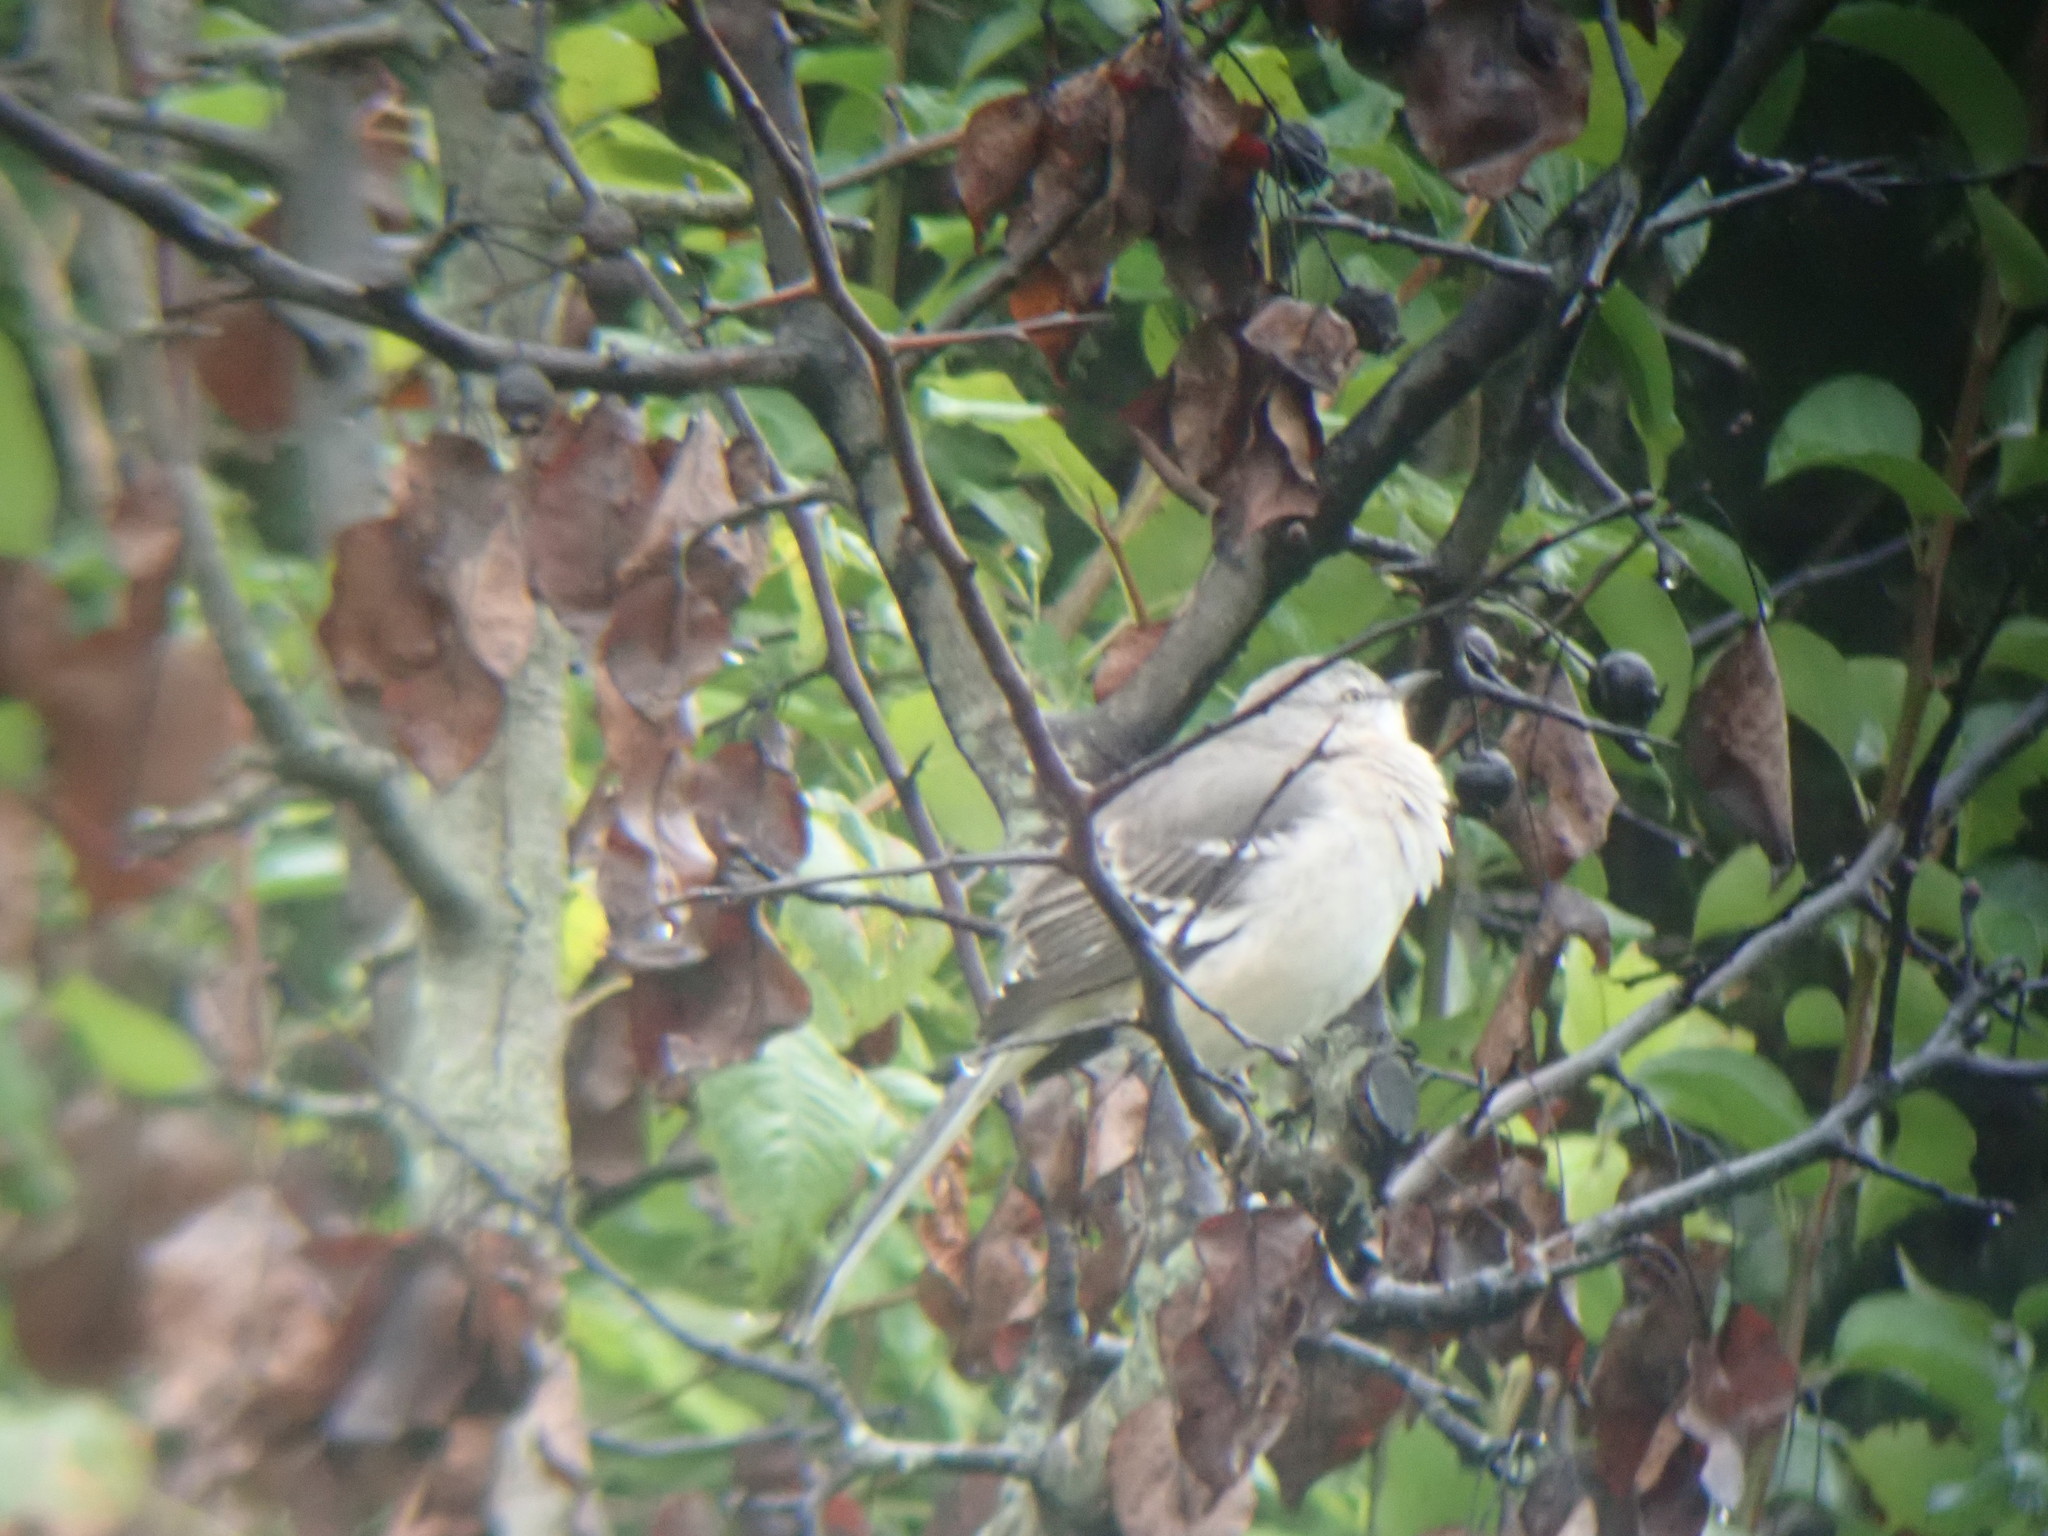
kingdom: Animalia
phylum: Chordata
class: Aves
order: Passeriformes
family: Mimidae
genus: Mimus
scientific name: Mimus polyglottos
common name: Northern mockingbird
